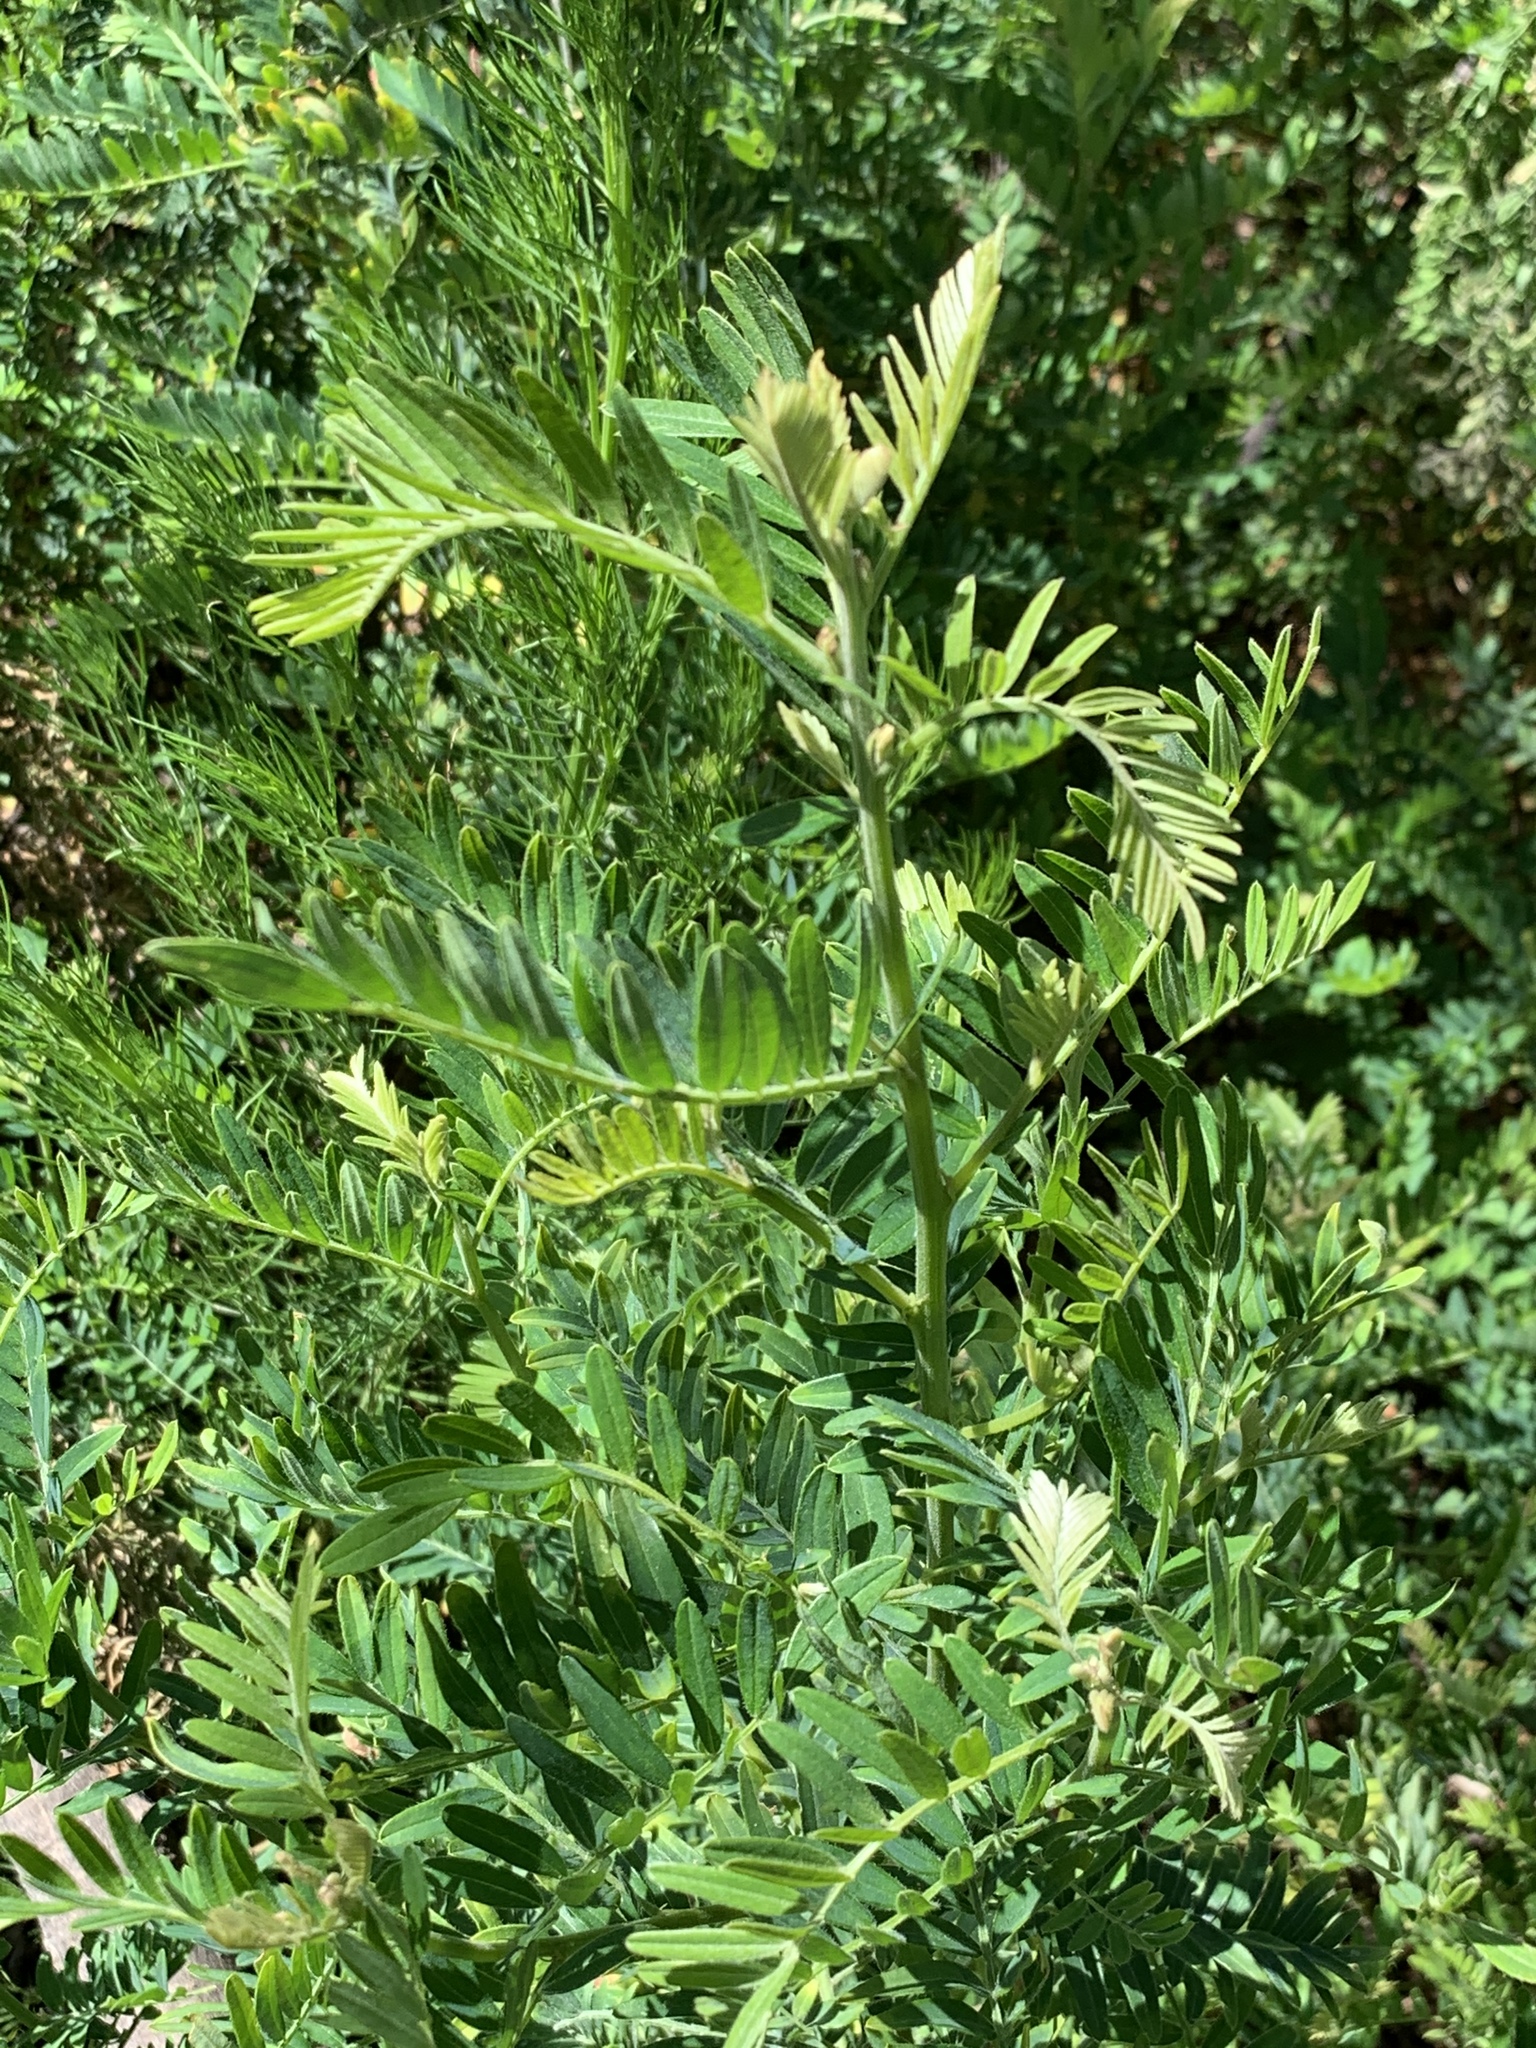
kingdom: Plantae
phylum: Tracheophyta
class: Magnoliopsida
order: Fabales
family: Fabaceae
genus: Virgilia
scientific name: Virgilia oroboides
